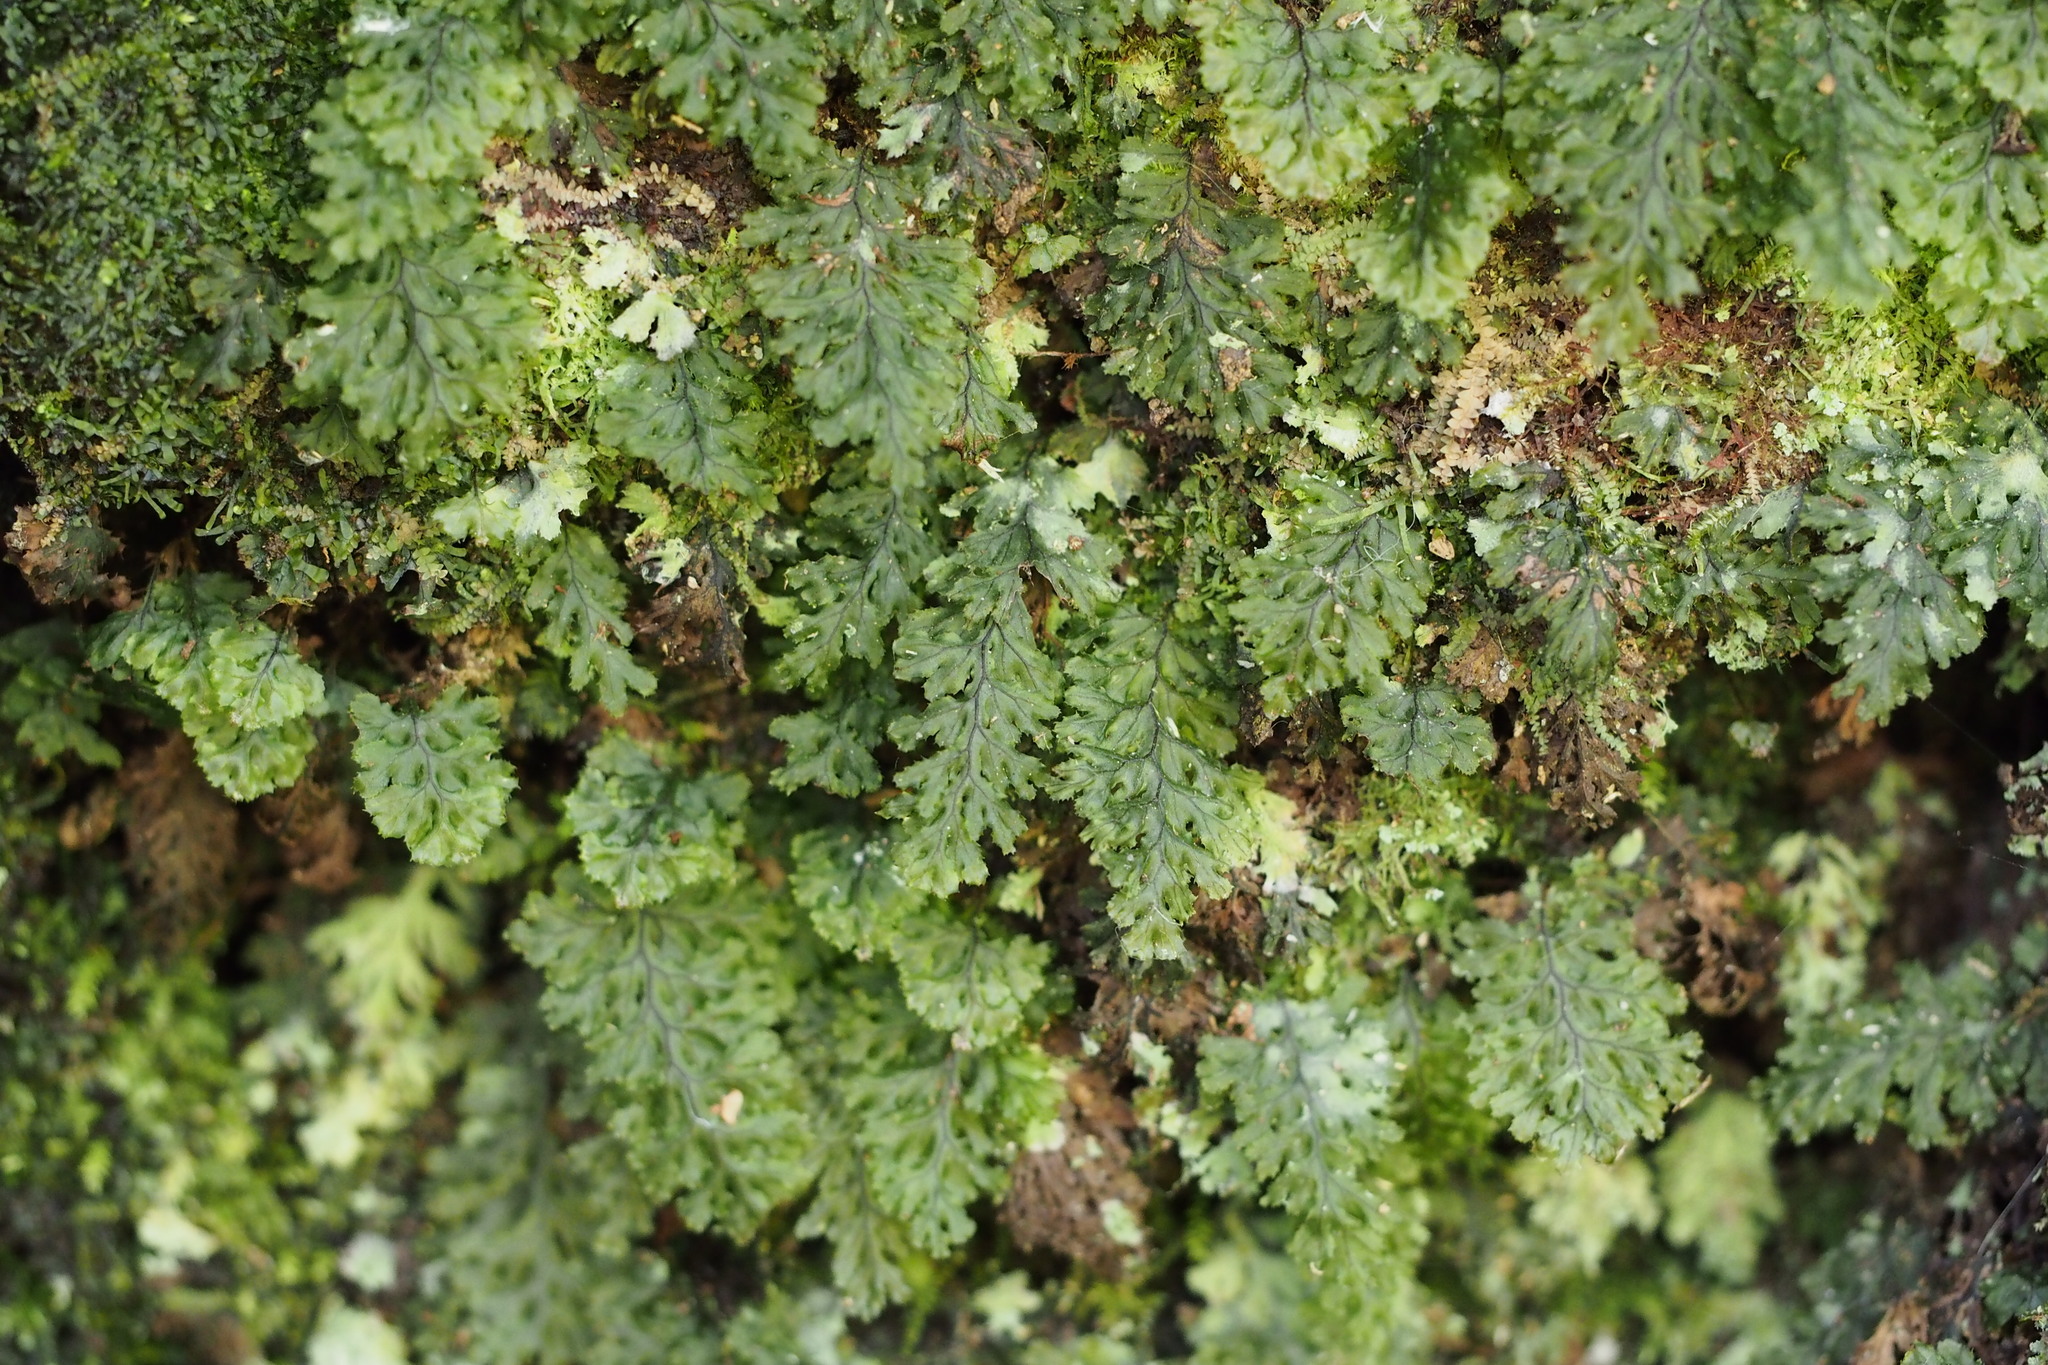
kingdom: Plantae
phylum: Tracheophyta
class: Polypodiopsida
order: Hymenophyllales
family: Hymenophyllaceae
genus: Hymenophyllum
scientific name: Hymenophyllum barbatum
